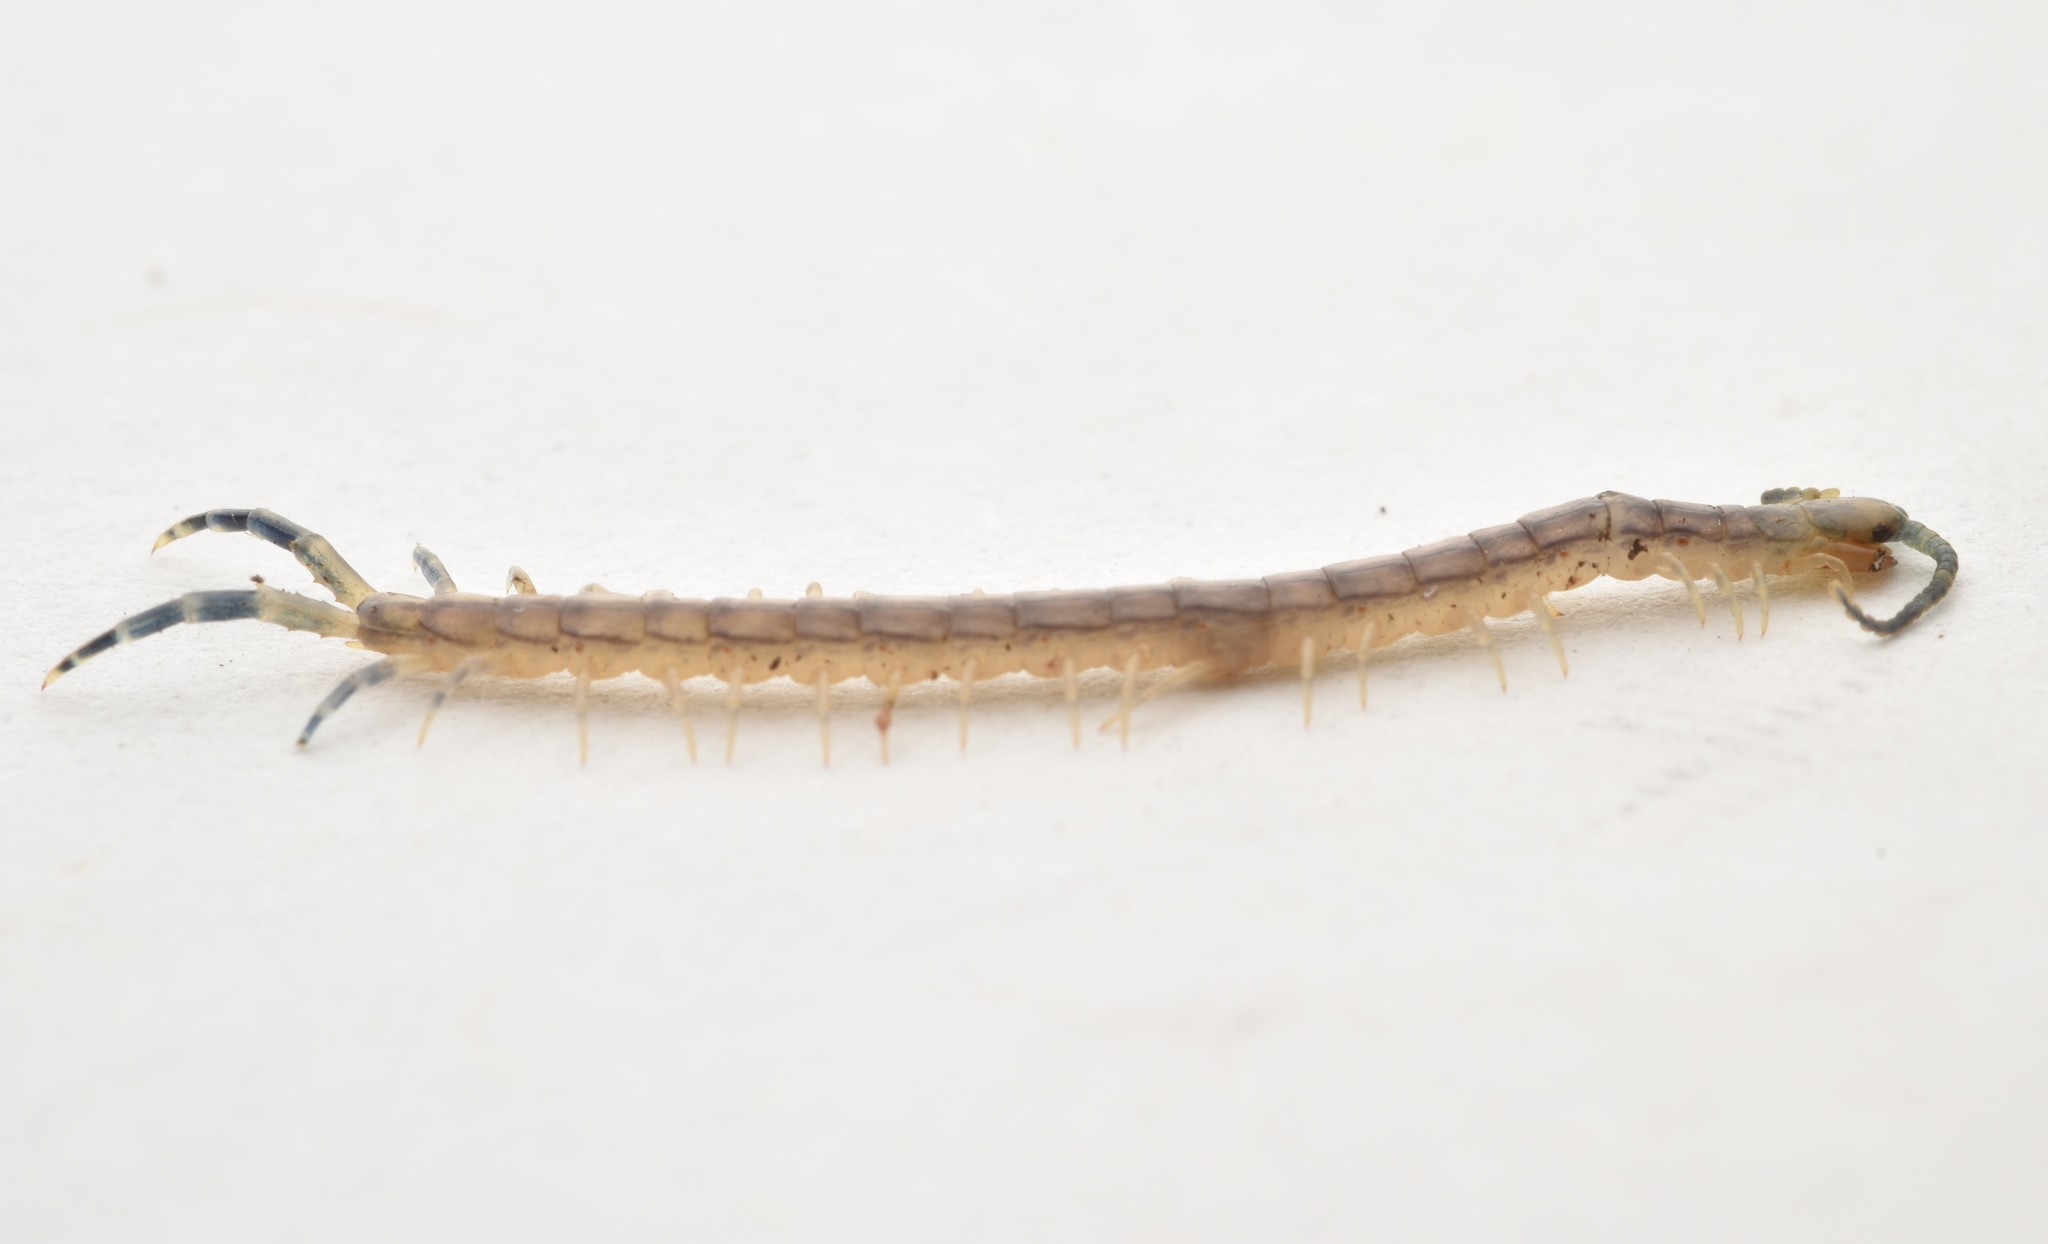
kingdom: Animalia
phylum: Arthropoda
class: Chilopoda
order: Scolopendromorpha
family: Scolopendridae
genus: Hemiscolopendra
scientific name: Hemiscolopendra marginata
